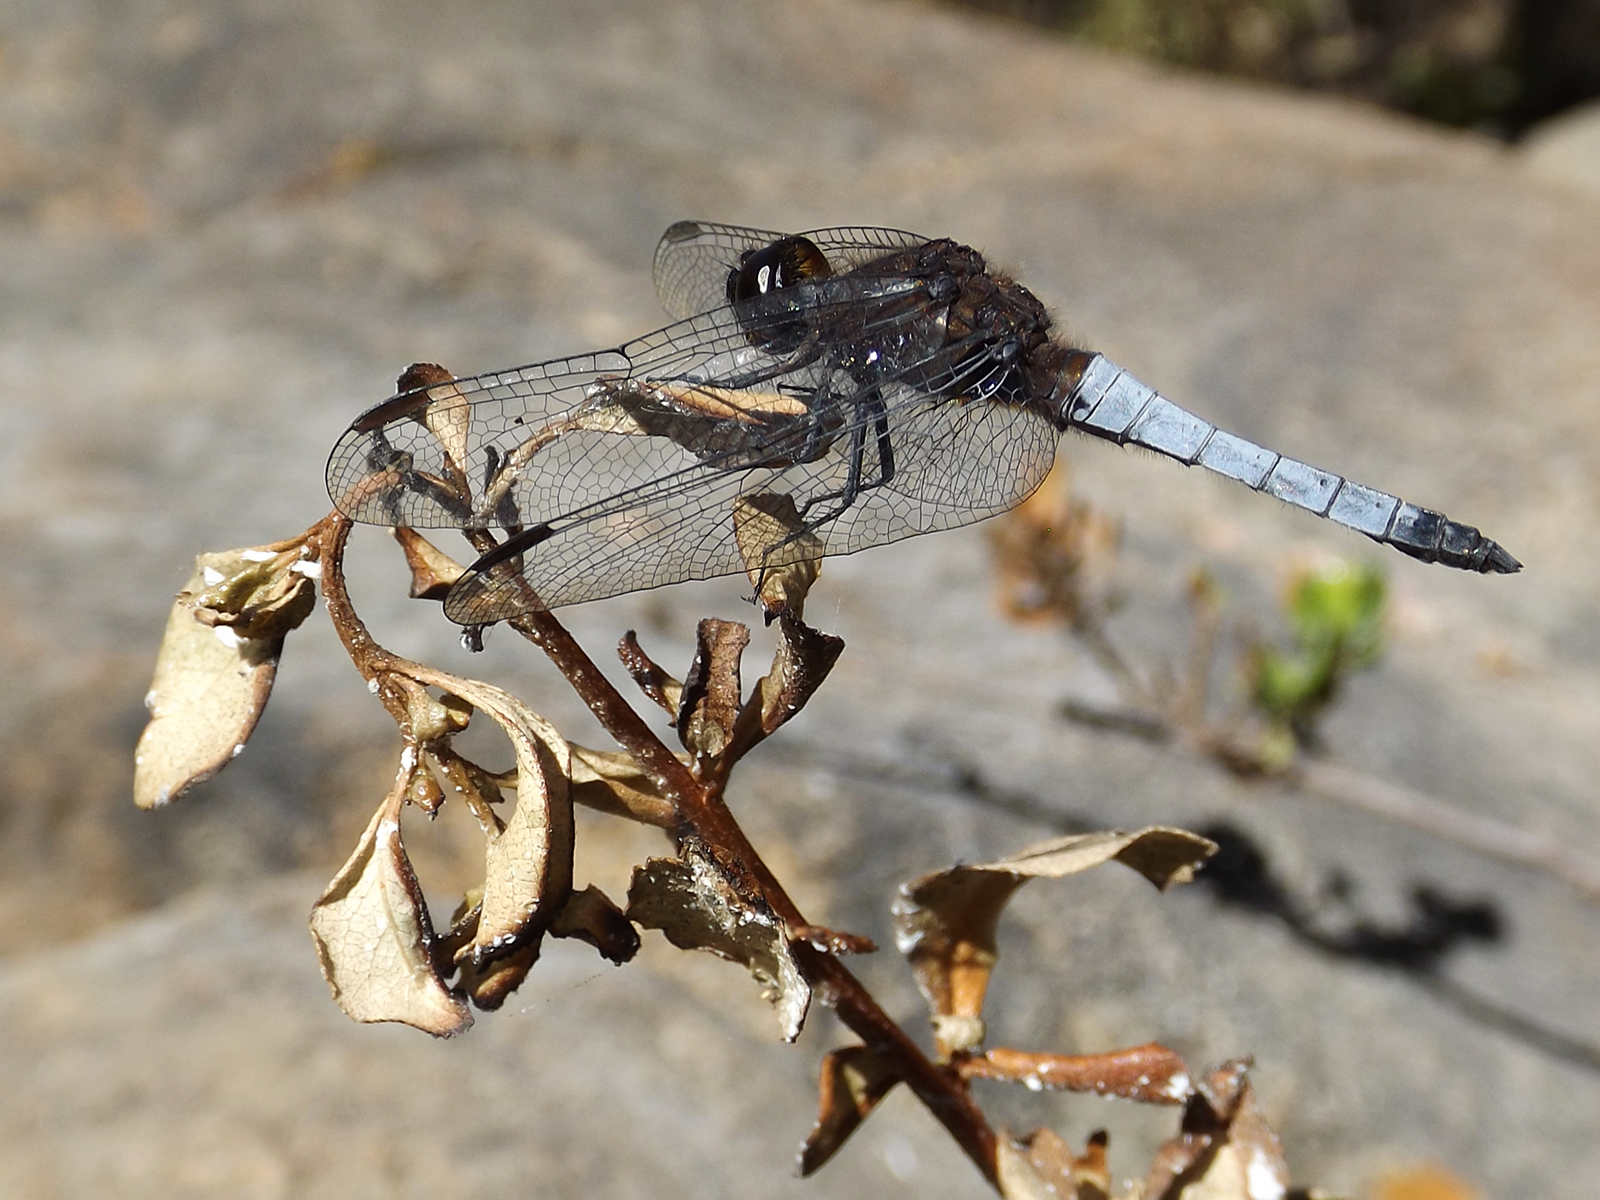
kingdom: Animalia
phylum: Arthropoda
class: Insecta
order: Odonata
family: Libellulidae
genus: Erythrodiplax
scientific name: Erythrodiplax connata
